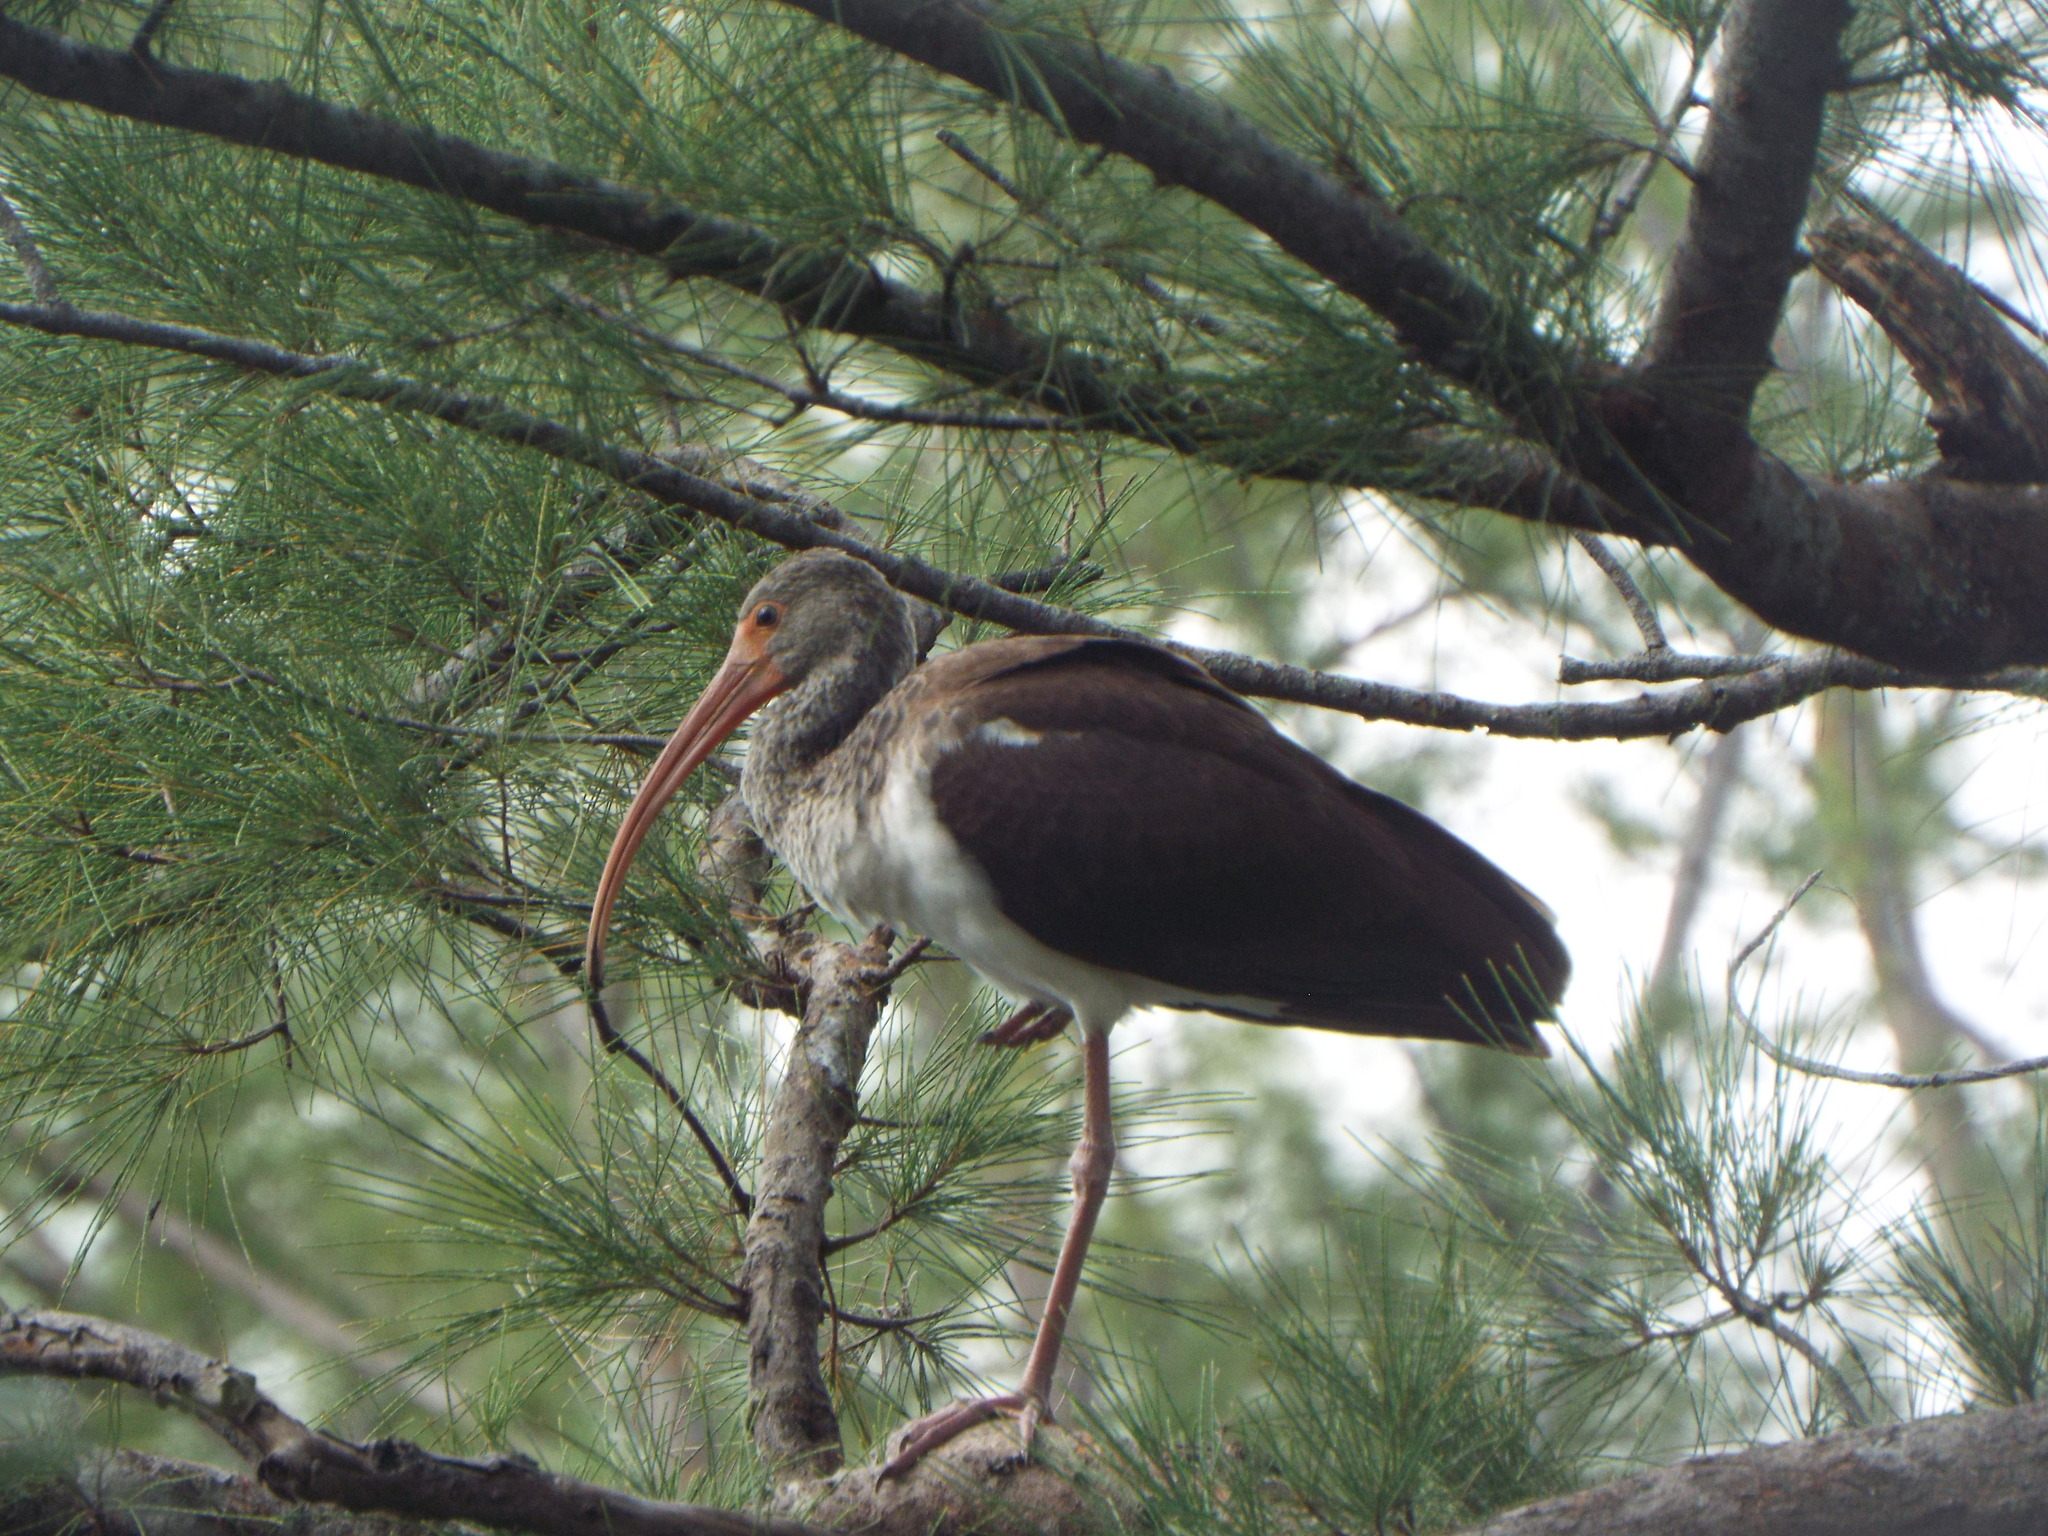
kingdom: Animalia
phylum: Chordata
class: Aves
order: Pelecaniformes
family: Threskiornithidae
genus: Eudocimus
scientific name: Eudocimus albus
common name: White ibis
